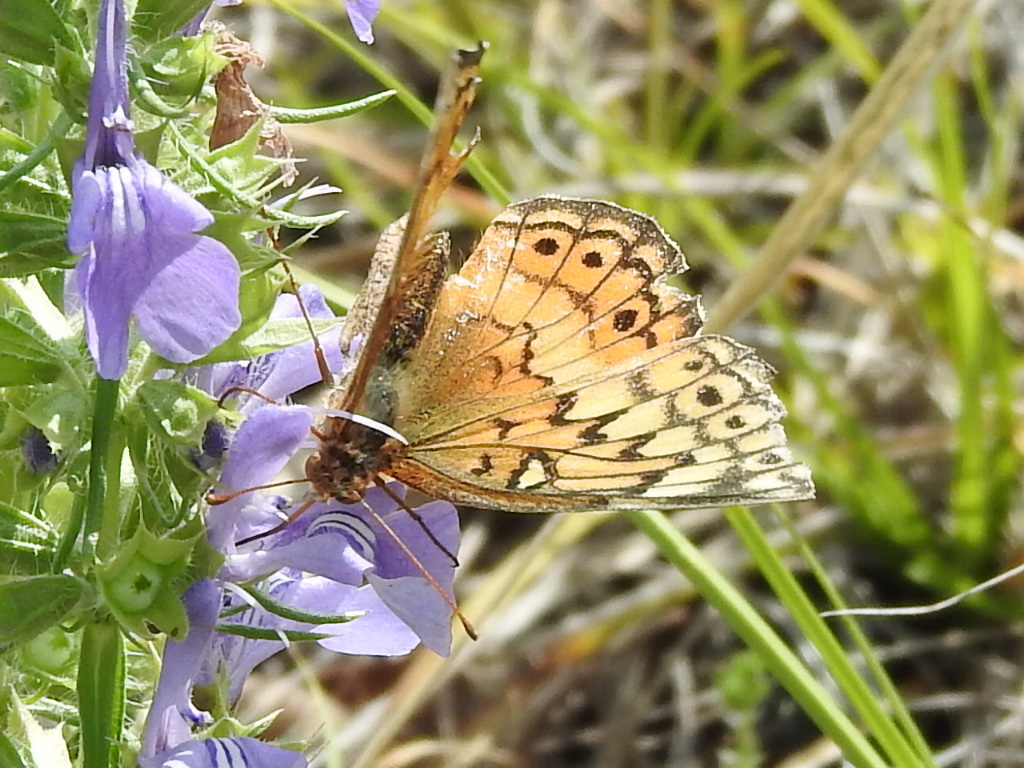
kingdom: Animalia
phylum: Arthropoda
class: Insecta
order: Lepidoptera
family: Nymphalidae
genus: Euptoieta
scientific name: Euptoieta claudia
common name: Variegated fritillary
